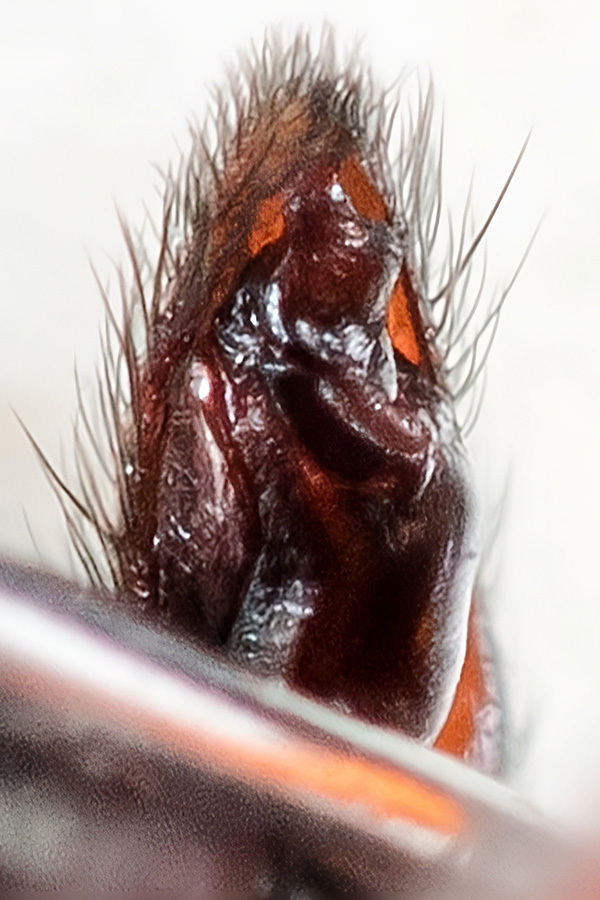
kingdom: Animalia
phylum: Arthropoda
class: Arachnida
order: Araneae
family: Gnaphosidae
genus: Poecilochroa
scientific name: Poecilochroa variana
